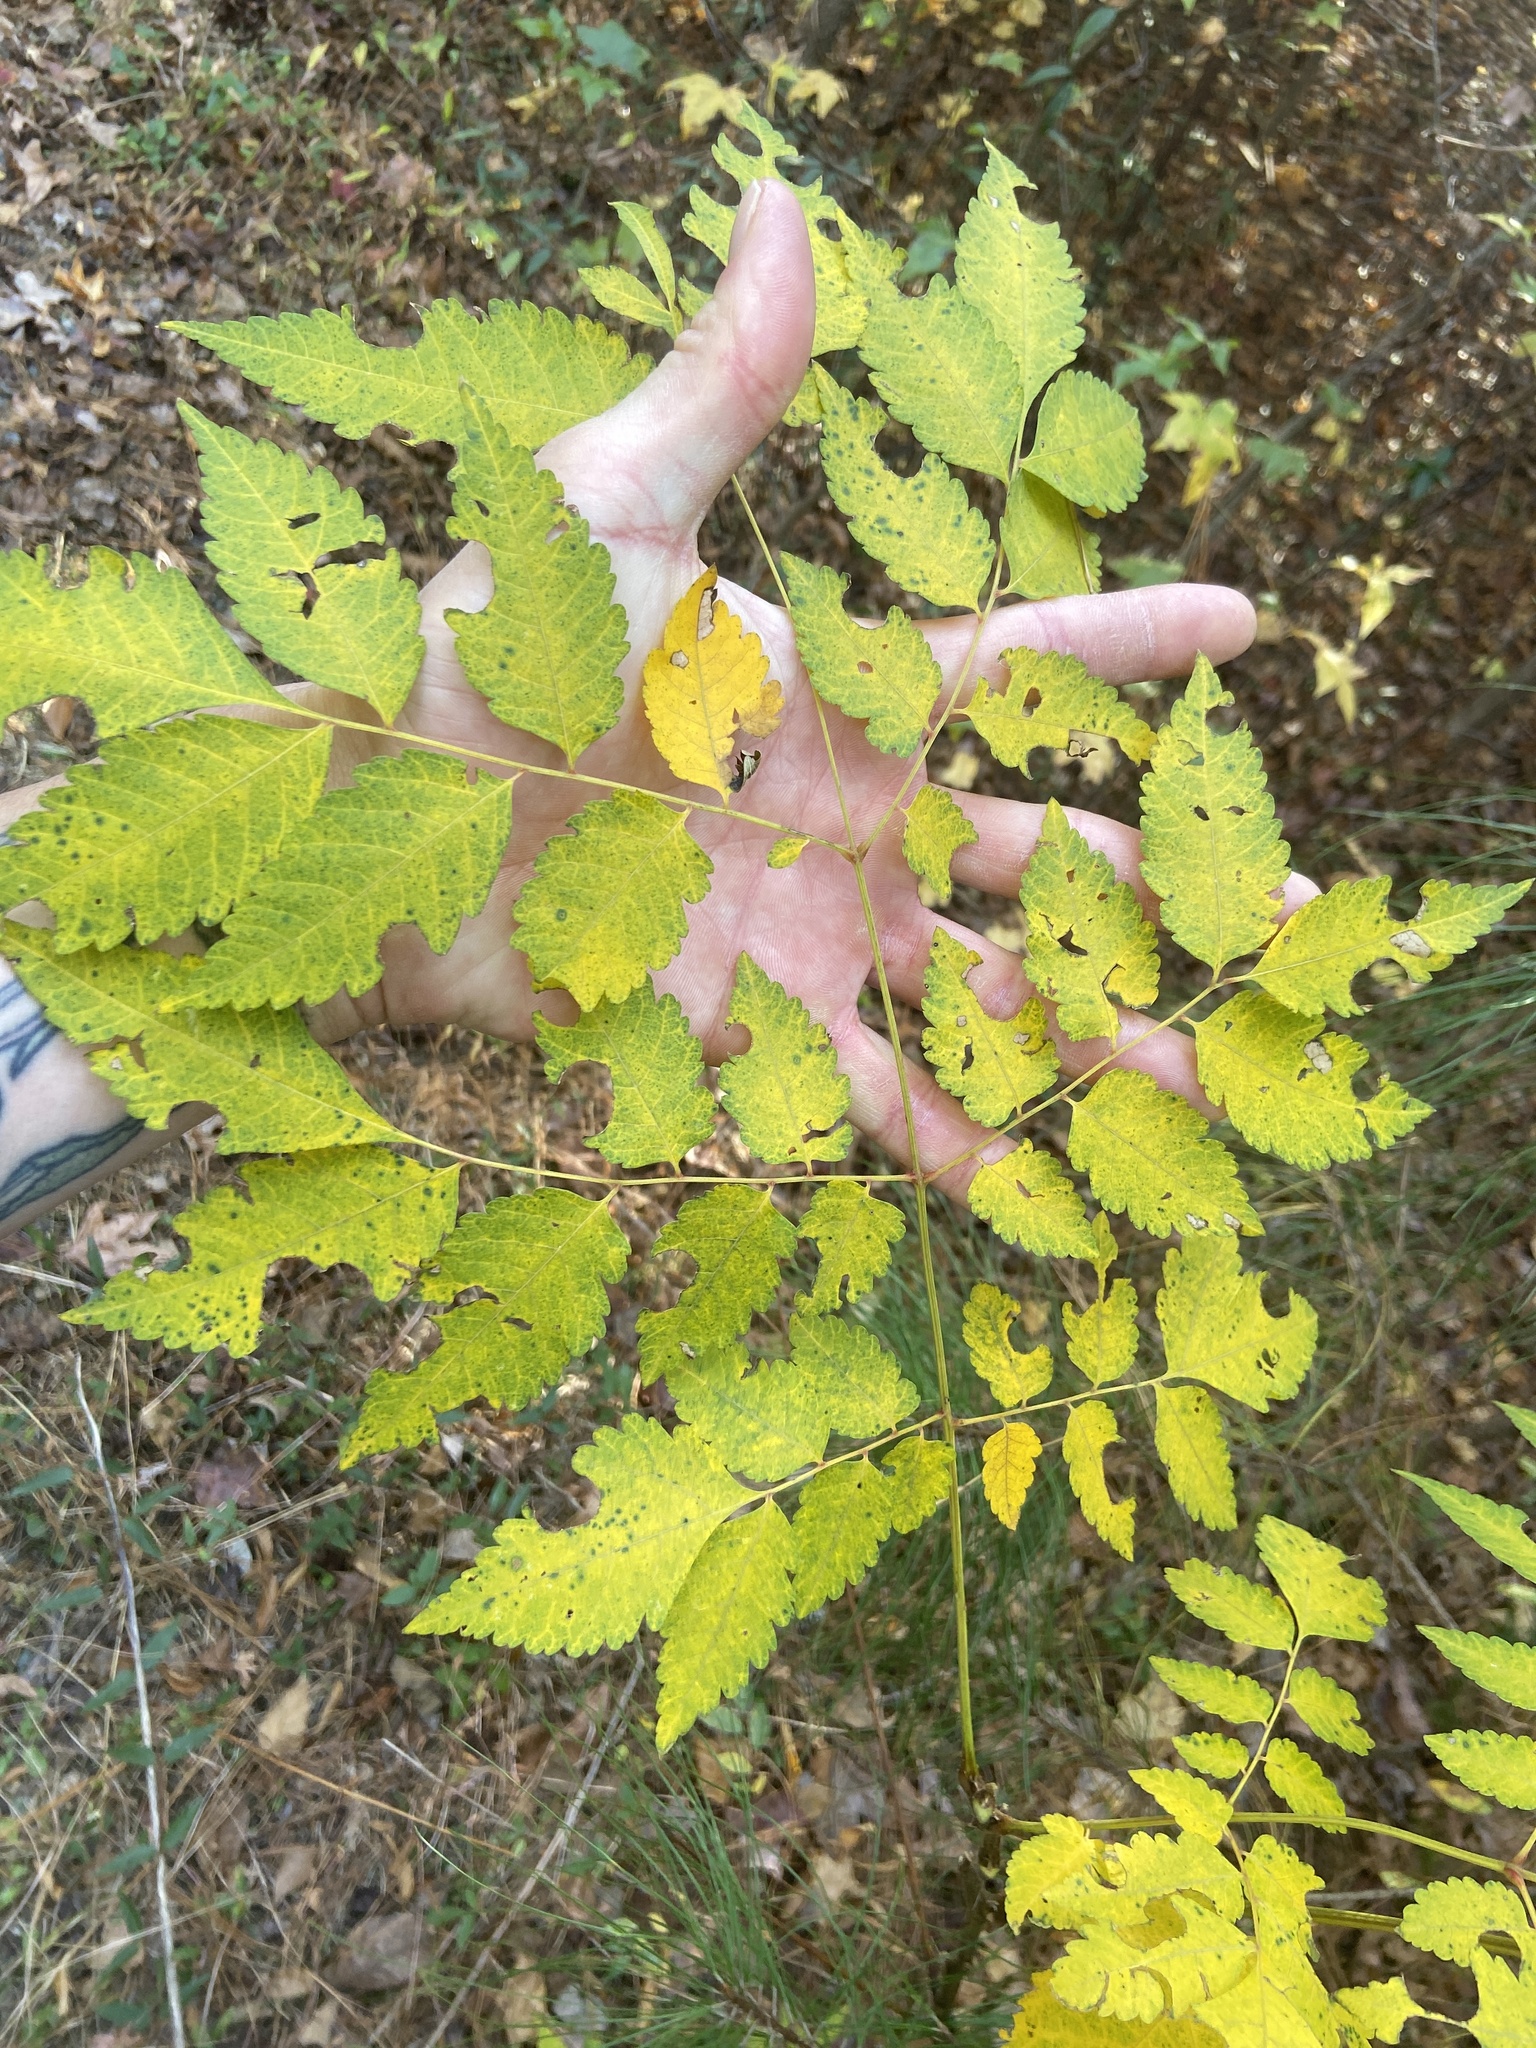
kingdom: Plantae
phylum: Tracheophyta
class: Magnoliopsida
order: Sapindales
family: Sapindaceae
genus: Koelreuteria
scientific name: Koelreuteria bipinnata
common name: Goldenrain tree
